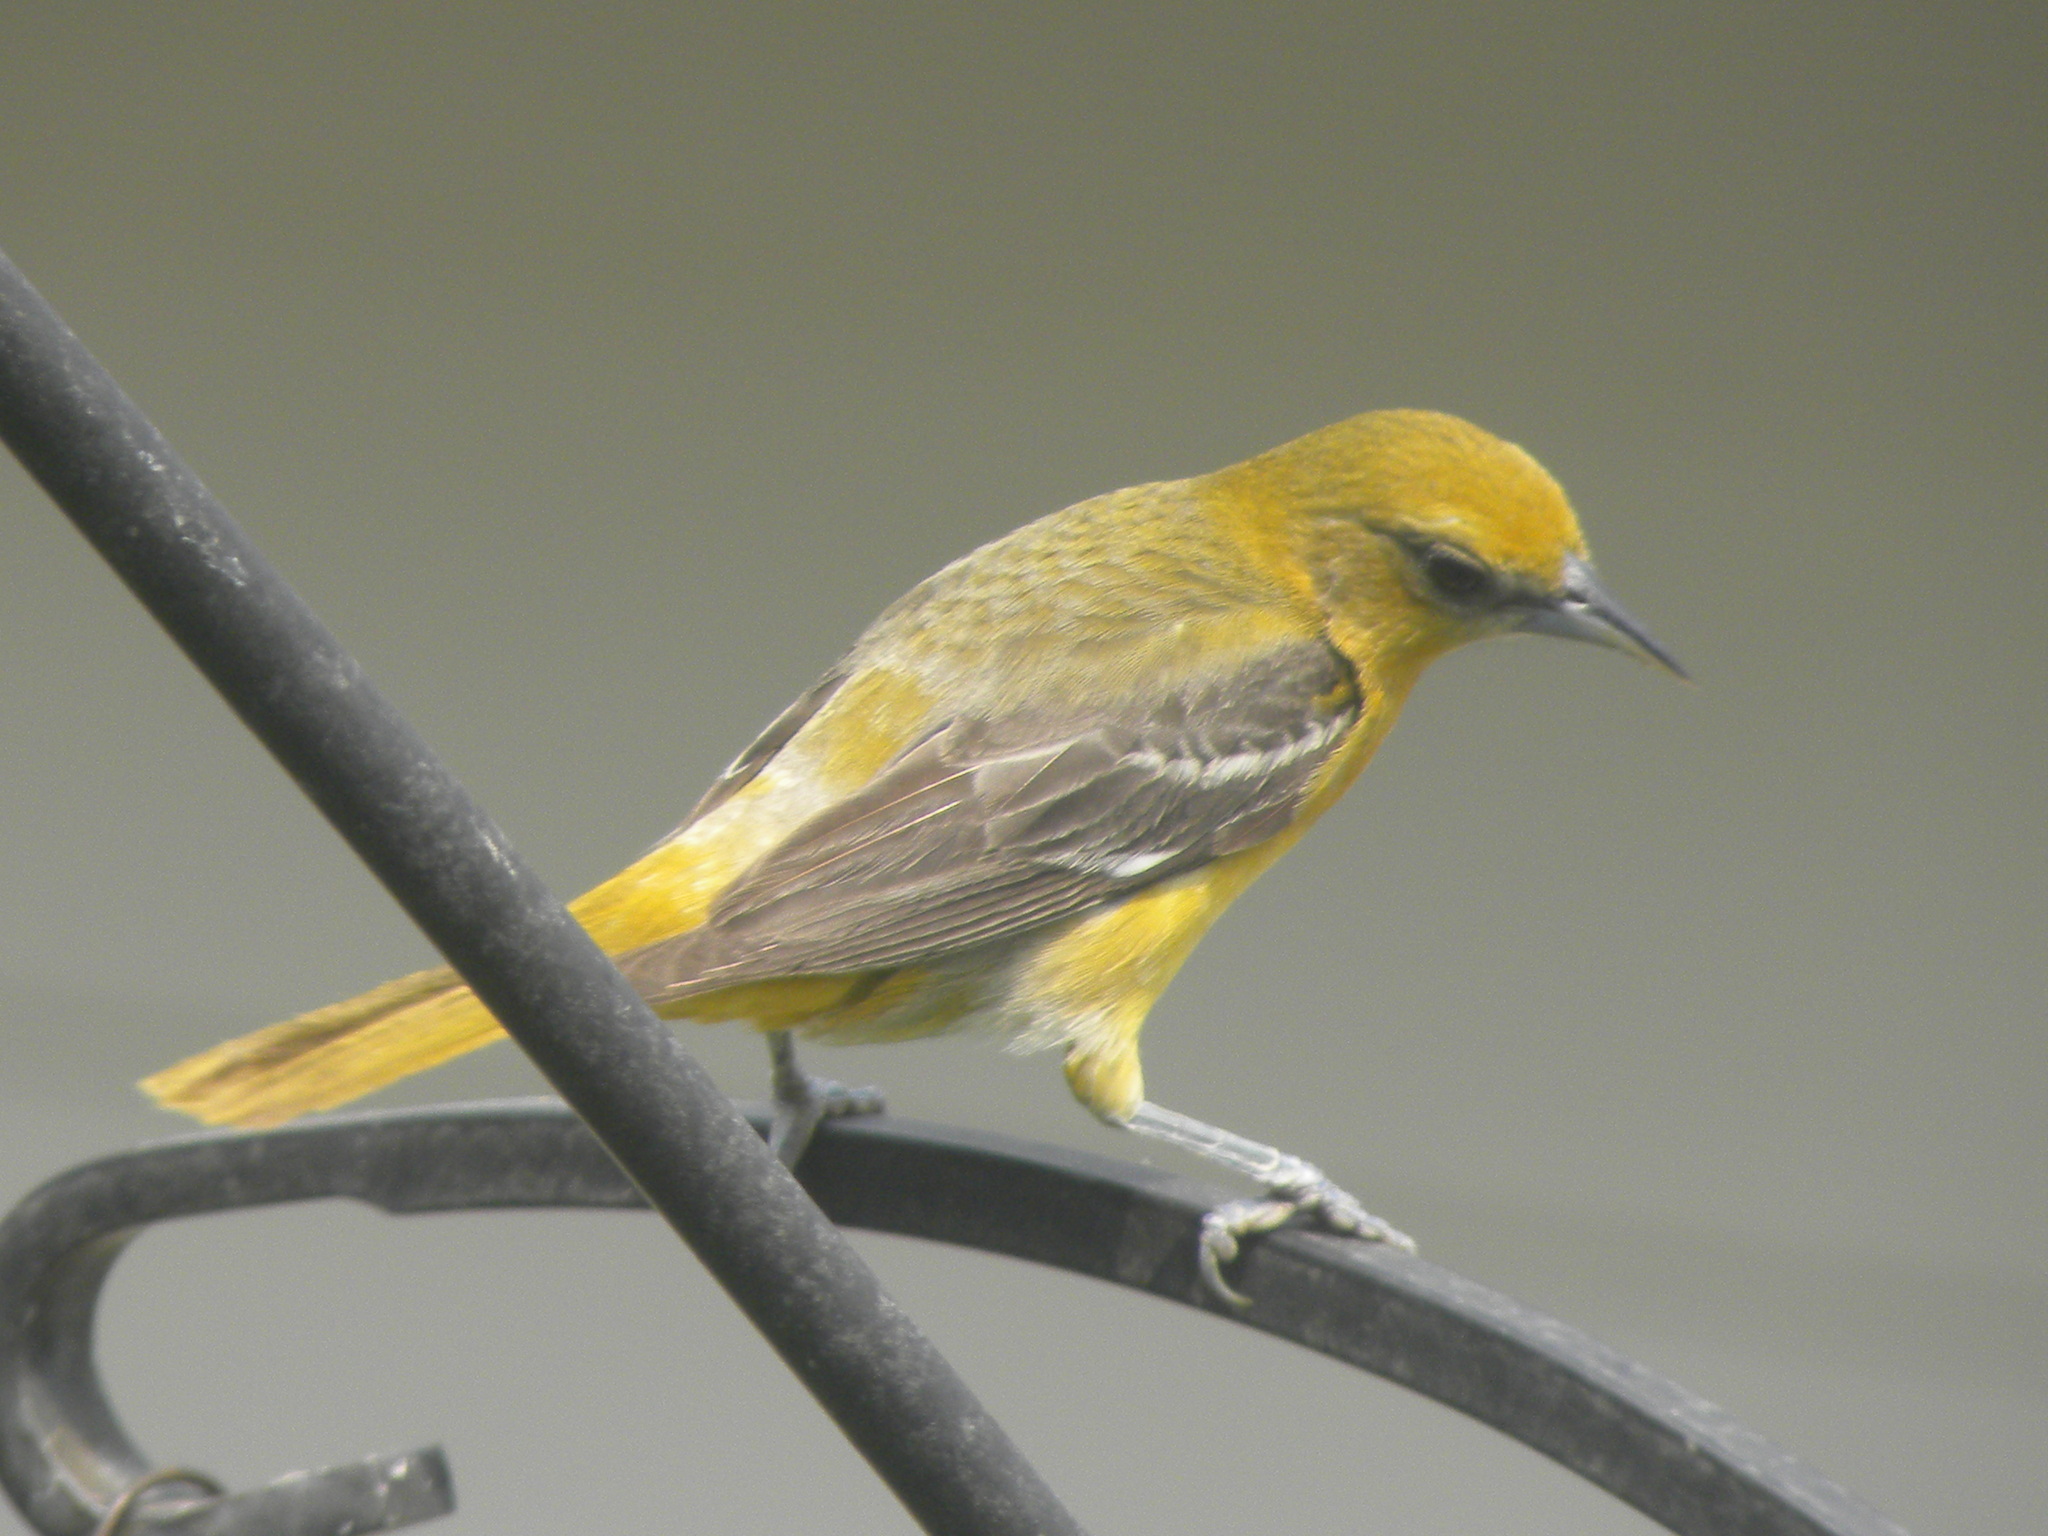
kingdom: Animalia
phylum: Chordata
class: Aves
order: Passeriformes
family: Icteridae
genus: Icterus
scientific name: Icterus galbula
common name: Baltimore oriole
